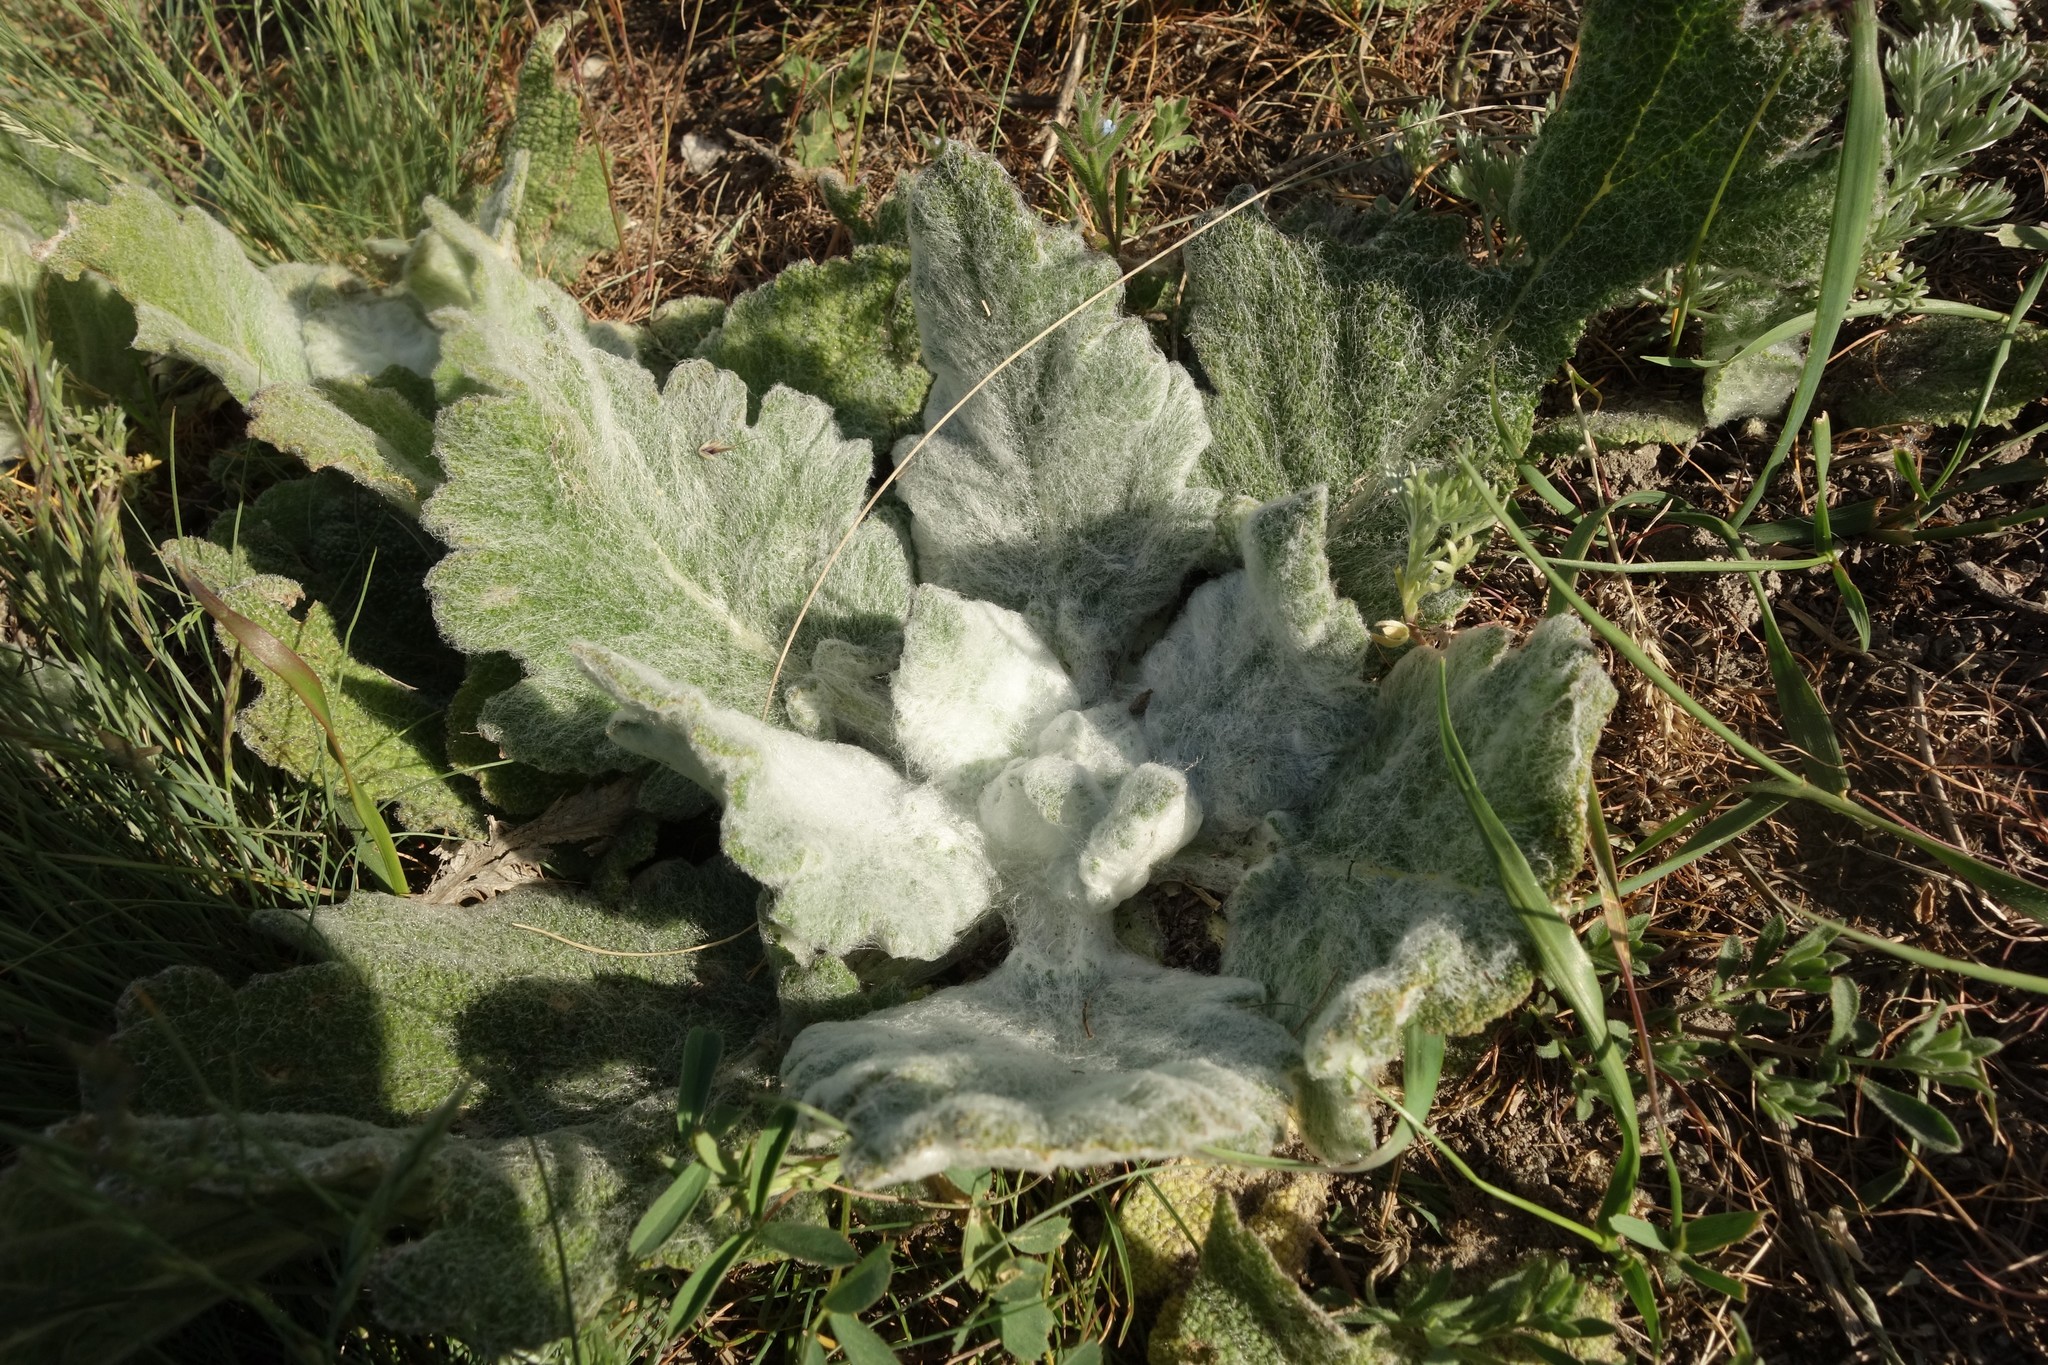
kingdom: Plantae
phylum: Tracheophyta
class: Magnoliopsida
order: Lamiales
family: Lamiaceae
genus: Salvia
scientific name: Salvia aethiopis
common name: Mediterranean sage
